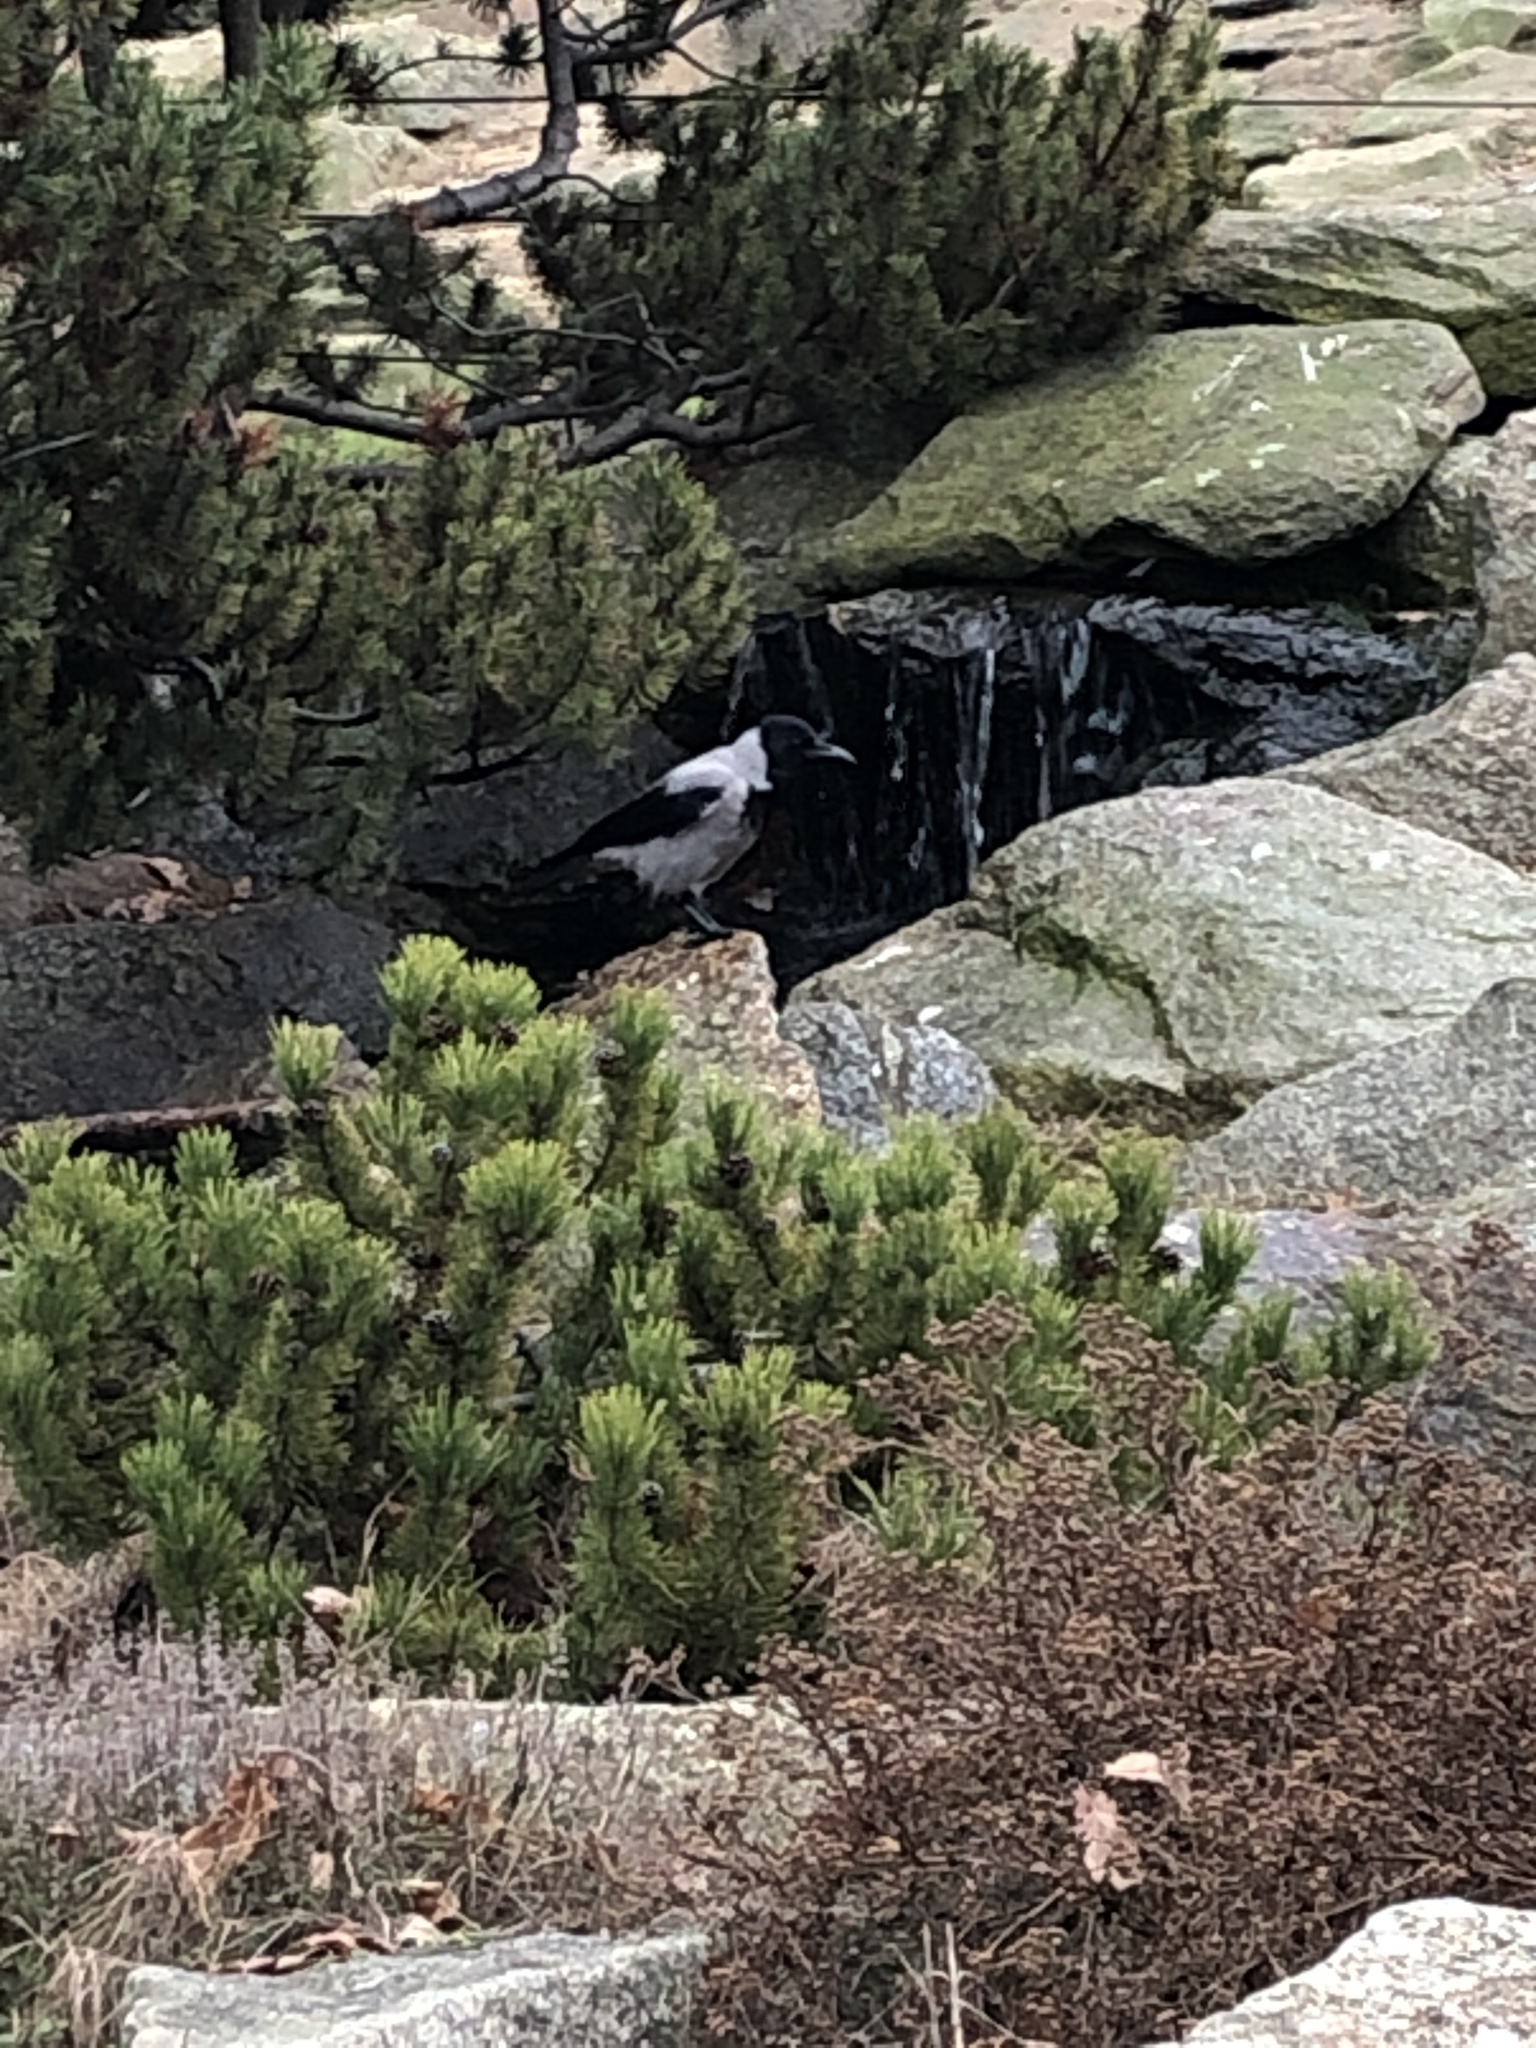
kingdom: Animalia
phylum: Chordata
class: Aves
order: Passeriformes
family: Corvidae
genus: Corvus
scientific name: Corvus cornix
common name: Hooded crow
